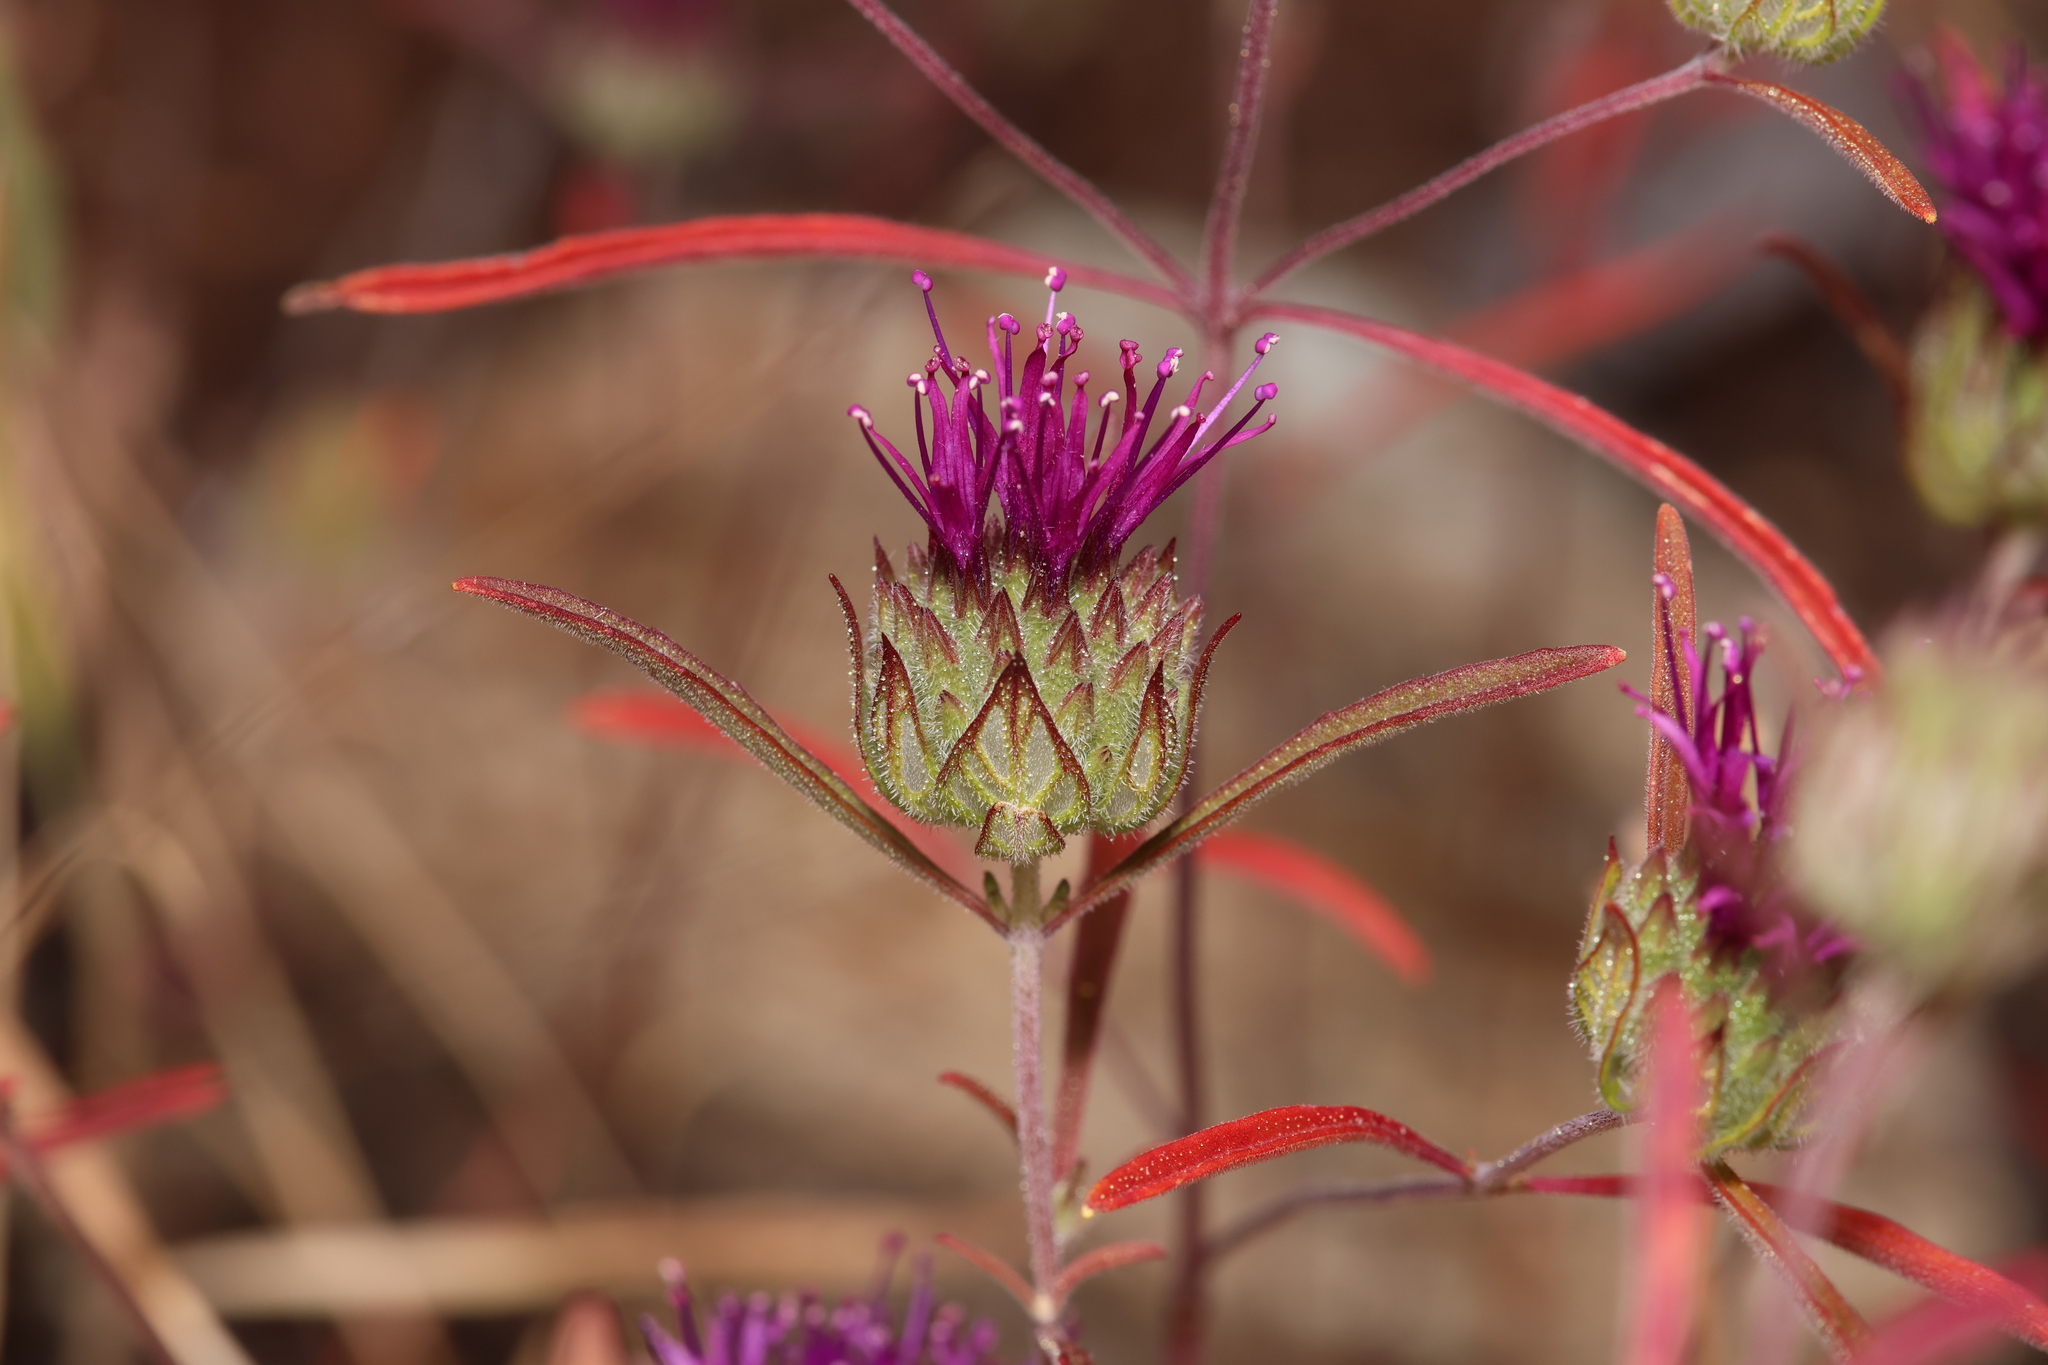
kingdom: Plantae
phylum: Tracheophyta
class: Magnoliopsida
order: Lamiales
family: Lamiaceae
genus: Monardella
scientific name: Monardella douglasii
